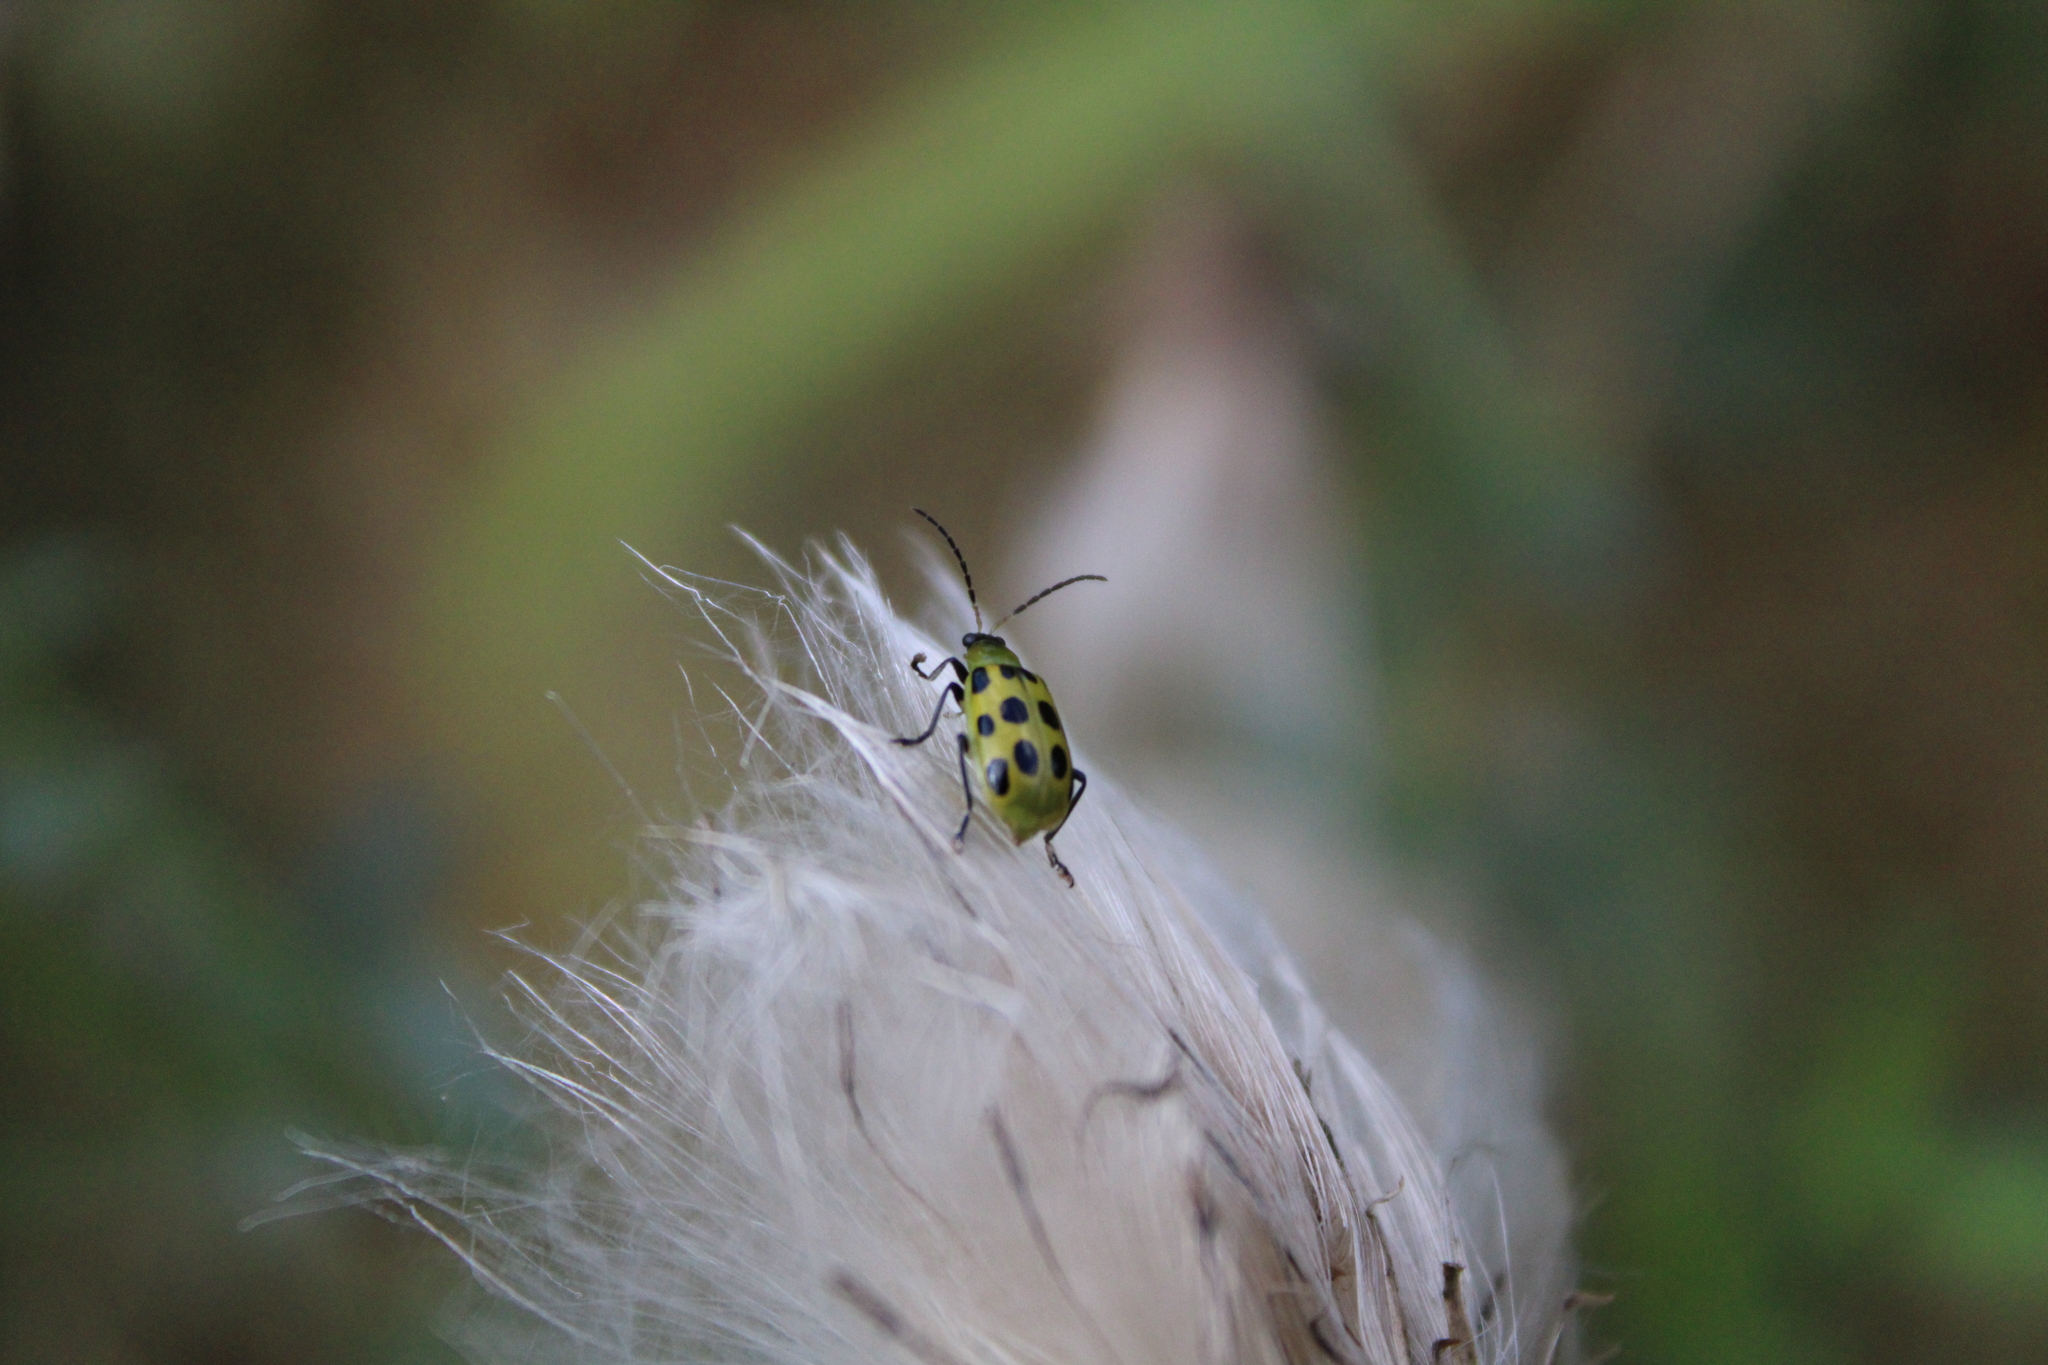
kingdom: Animalia
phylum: Arthropoda
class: Insecta
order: Coleoptera
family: Chrysomelidae
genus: Diabrotica
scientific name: Diabrotica undecimpunctata
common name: Spotted cucumber beetle
